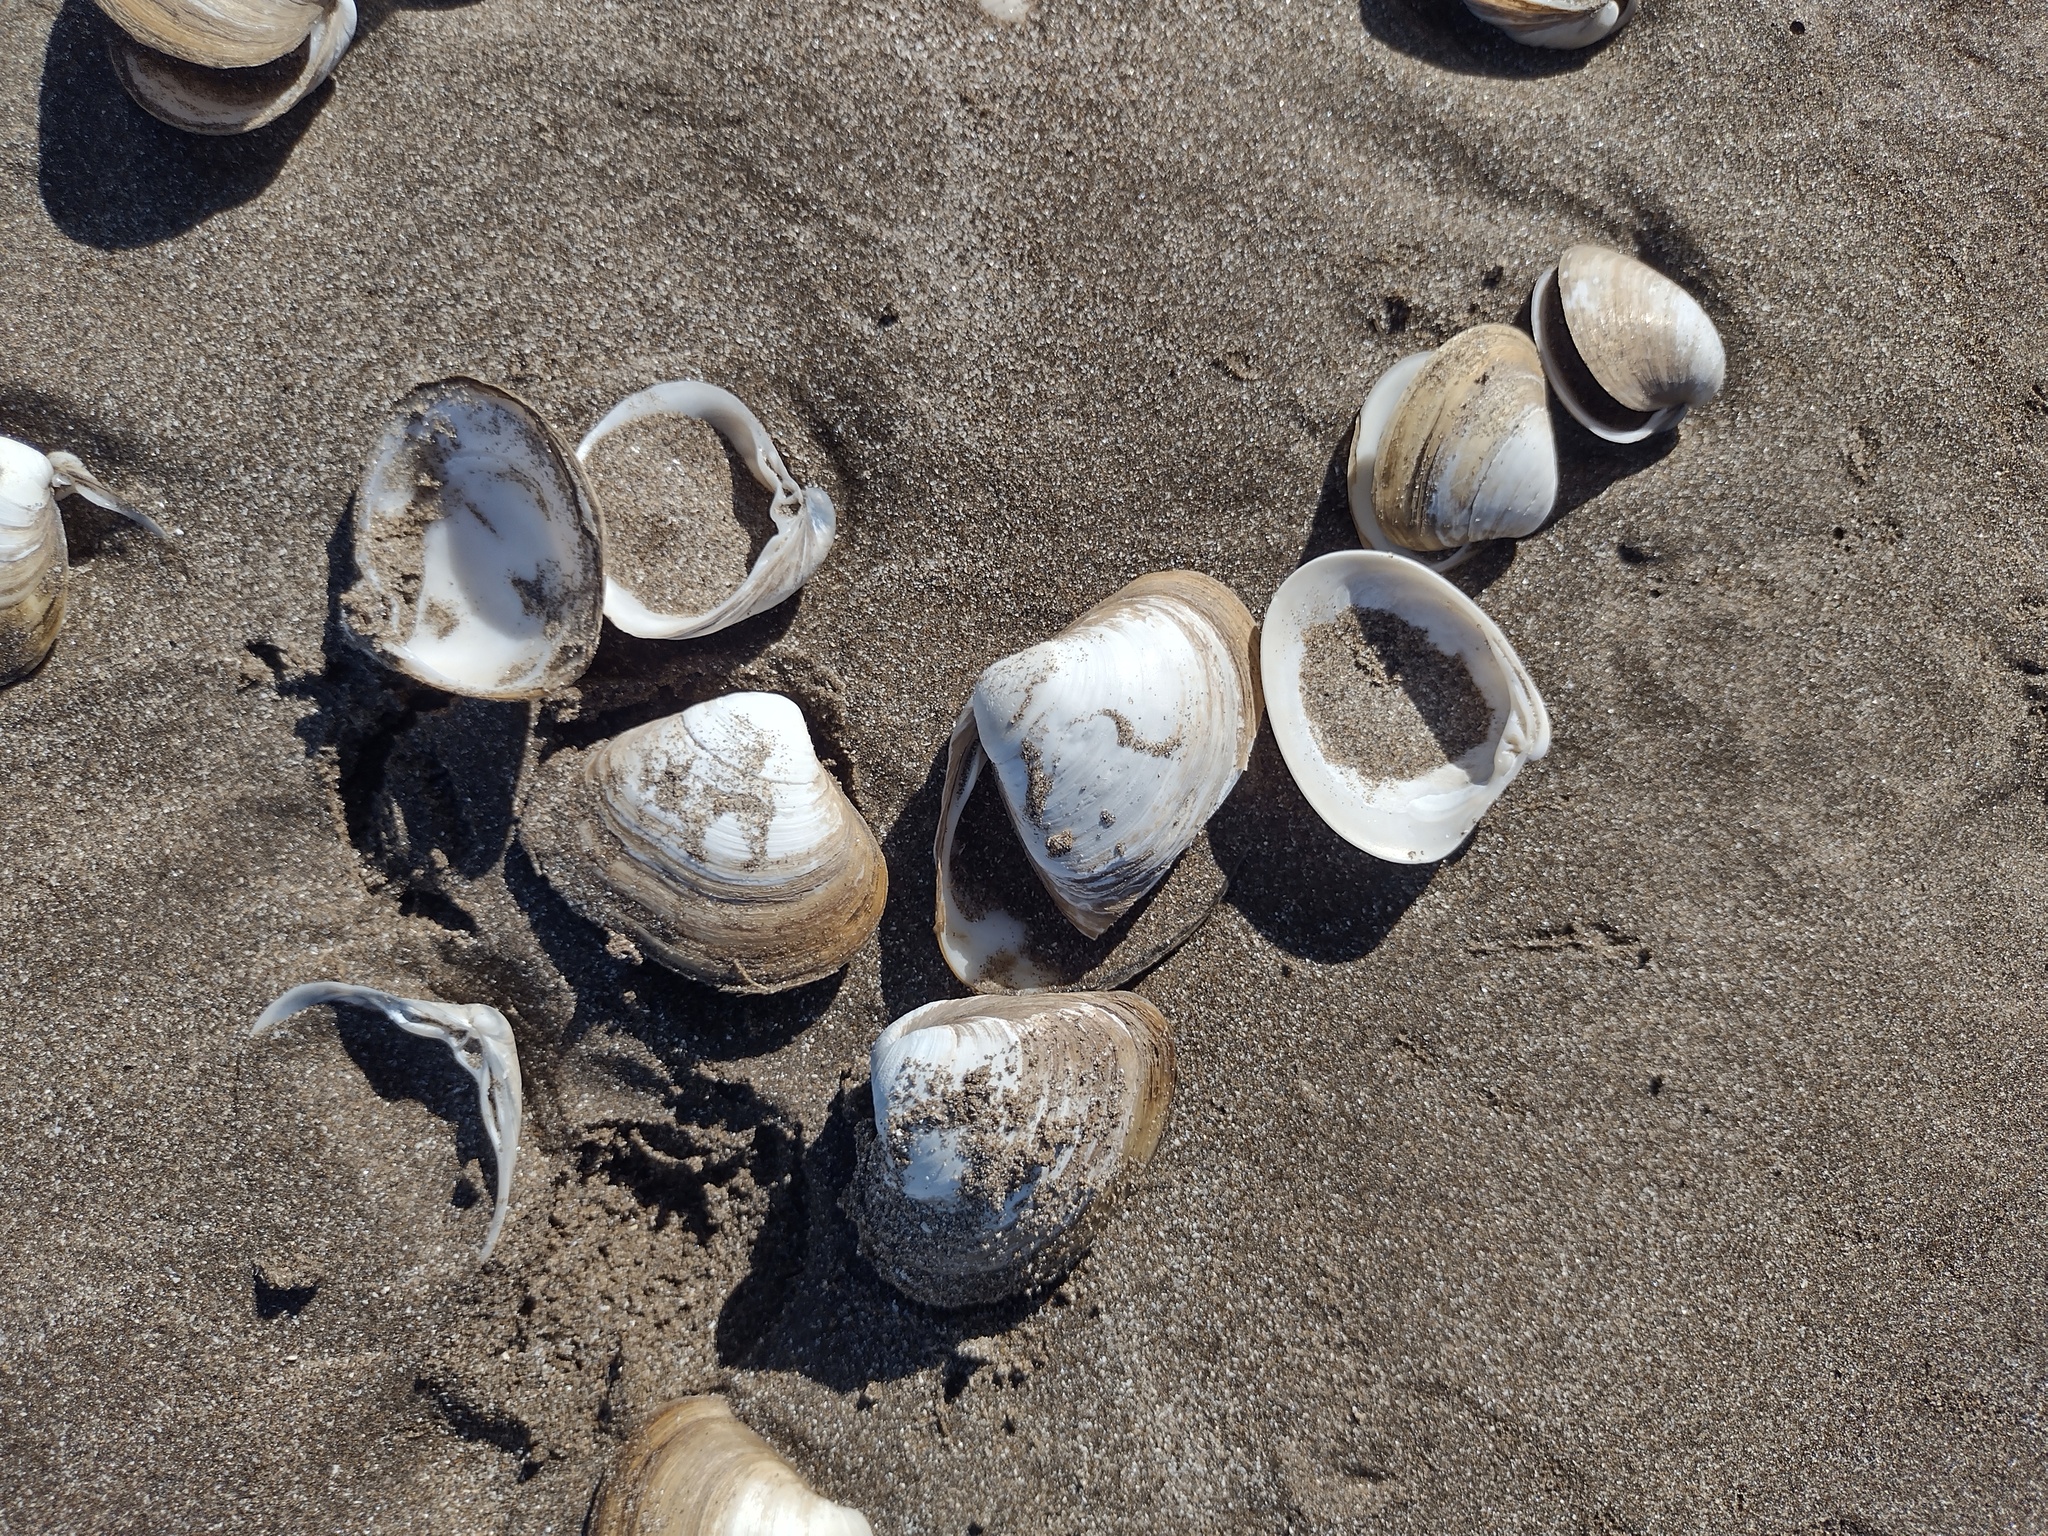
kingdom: Animalia
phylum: Mollusca
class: Bivalvia
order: Venerida
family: Mactridae
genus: Mactra
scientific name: Mactra isabelleana
